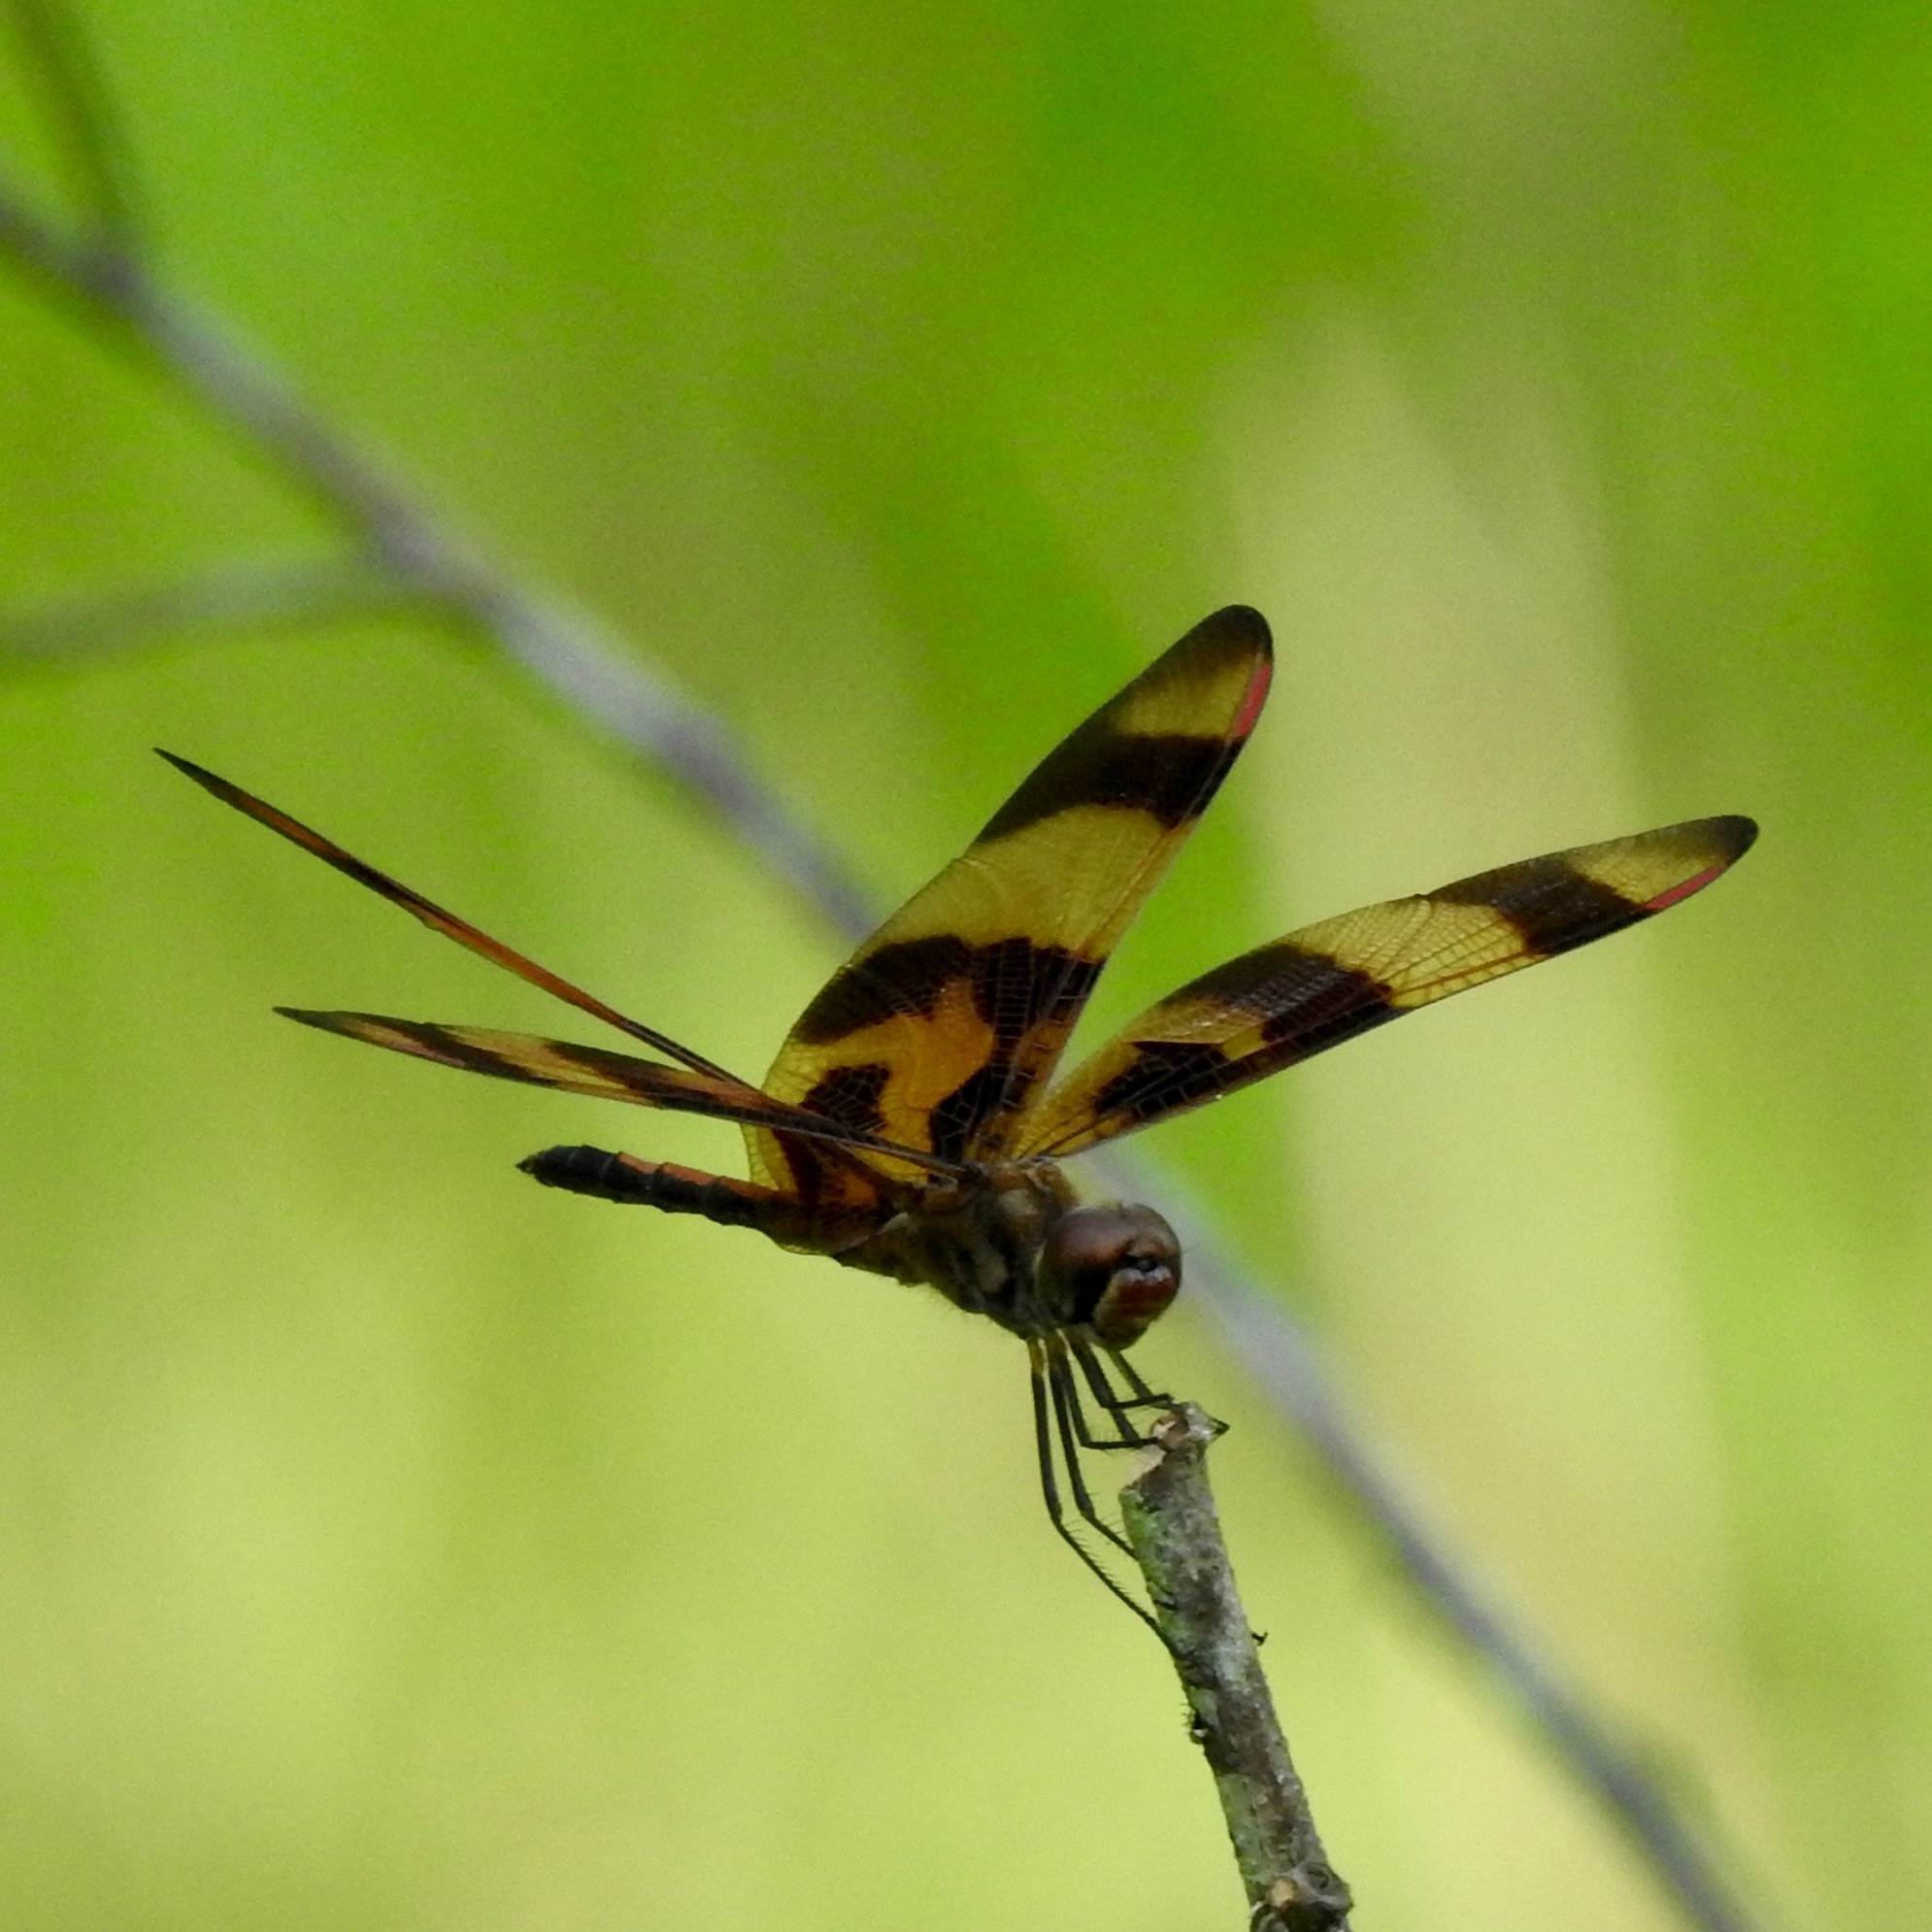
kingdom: Animalia
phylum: Arthropoda
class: Insecta
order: Odonata
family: Libellulidae
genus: Celithemis
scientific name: Celithemis eponina
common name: Halloween pennant
